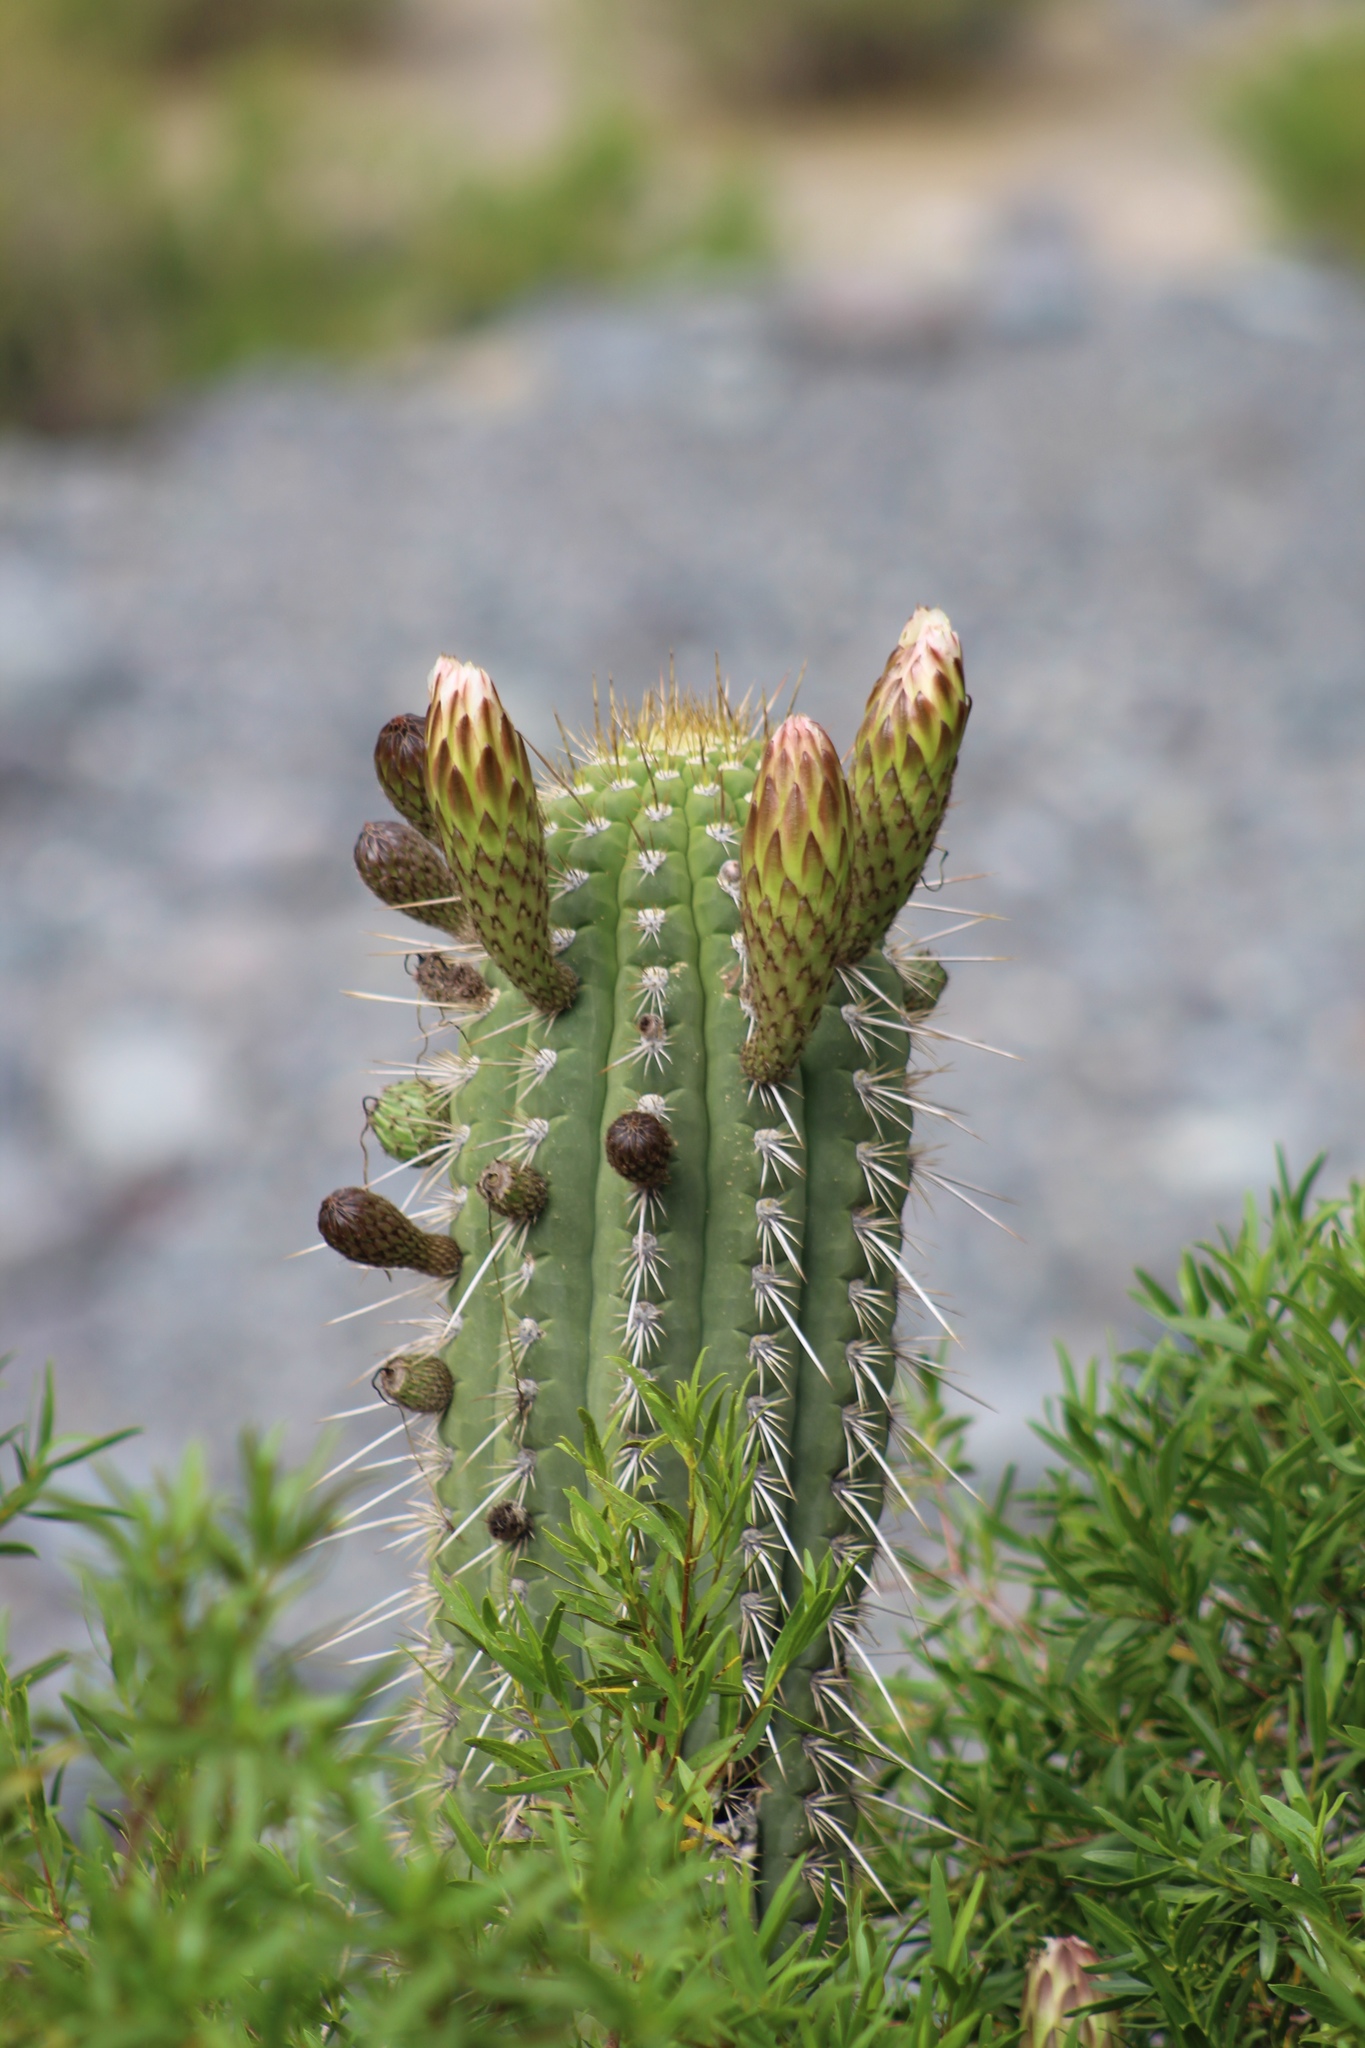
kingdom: Plantae
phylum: Tracheophyta
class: Magnoliopsida
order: Caryophyllales
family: Cactaceae
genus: Leucostele
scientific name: Leucostele chiloensis
